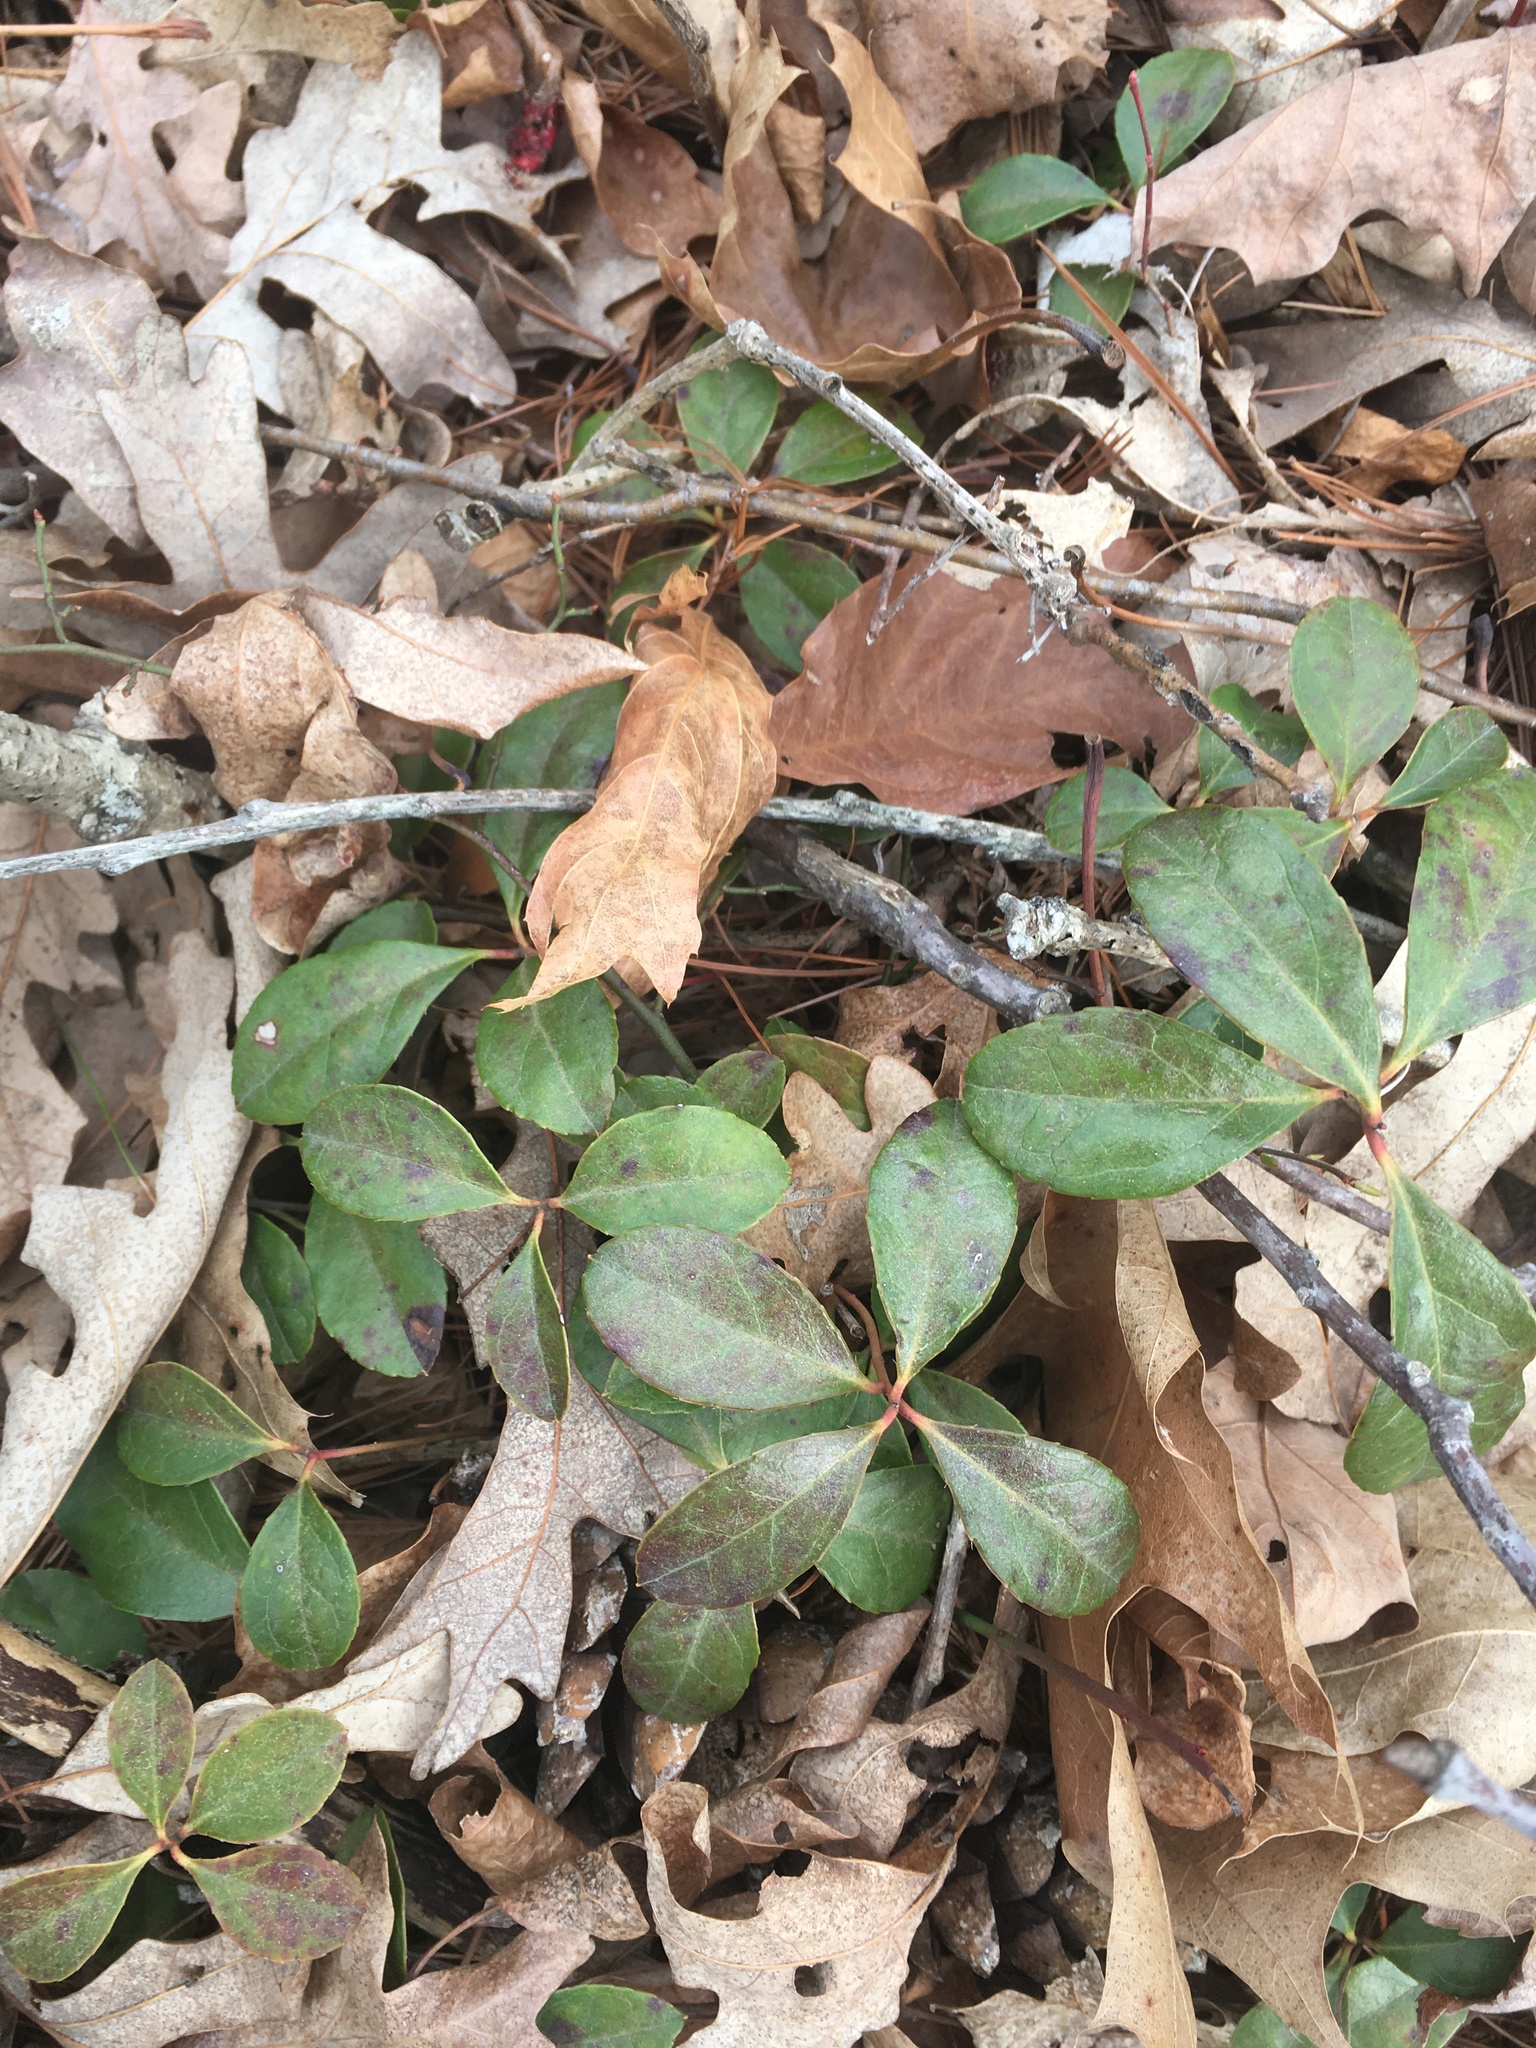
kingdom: Plantae
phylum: Tracheophyta
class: Magnoliopsida
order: Ericales
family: Ericaceae
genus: Gaultheria
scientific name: Gaultheria procumbens
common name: Checkerberry
